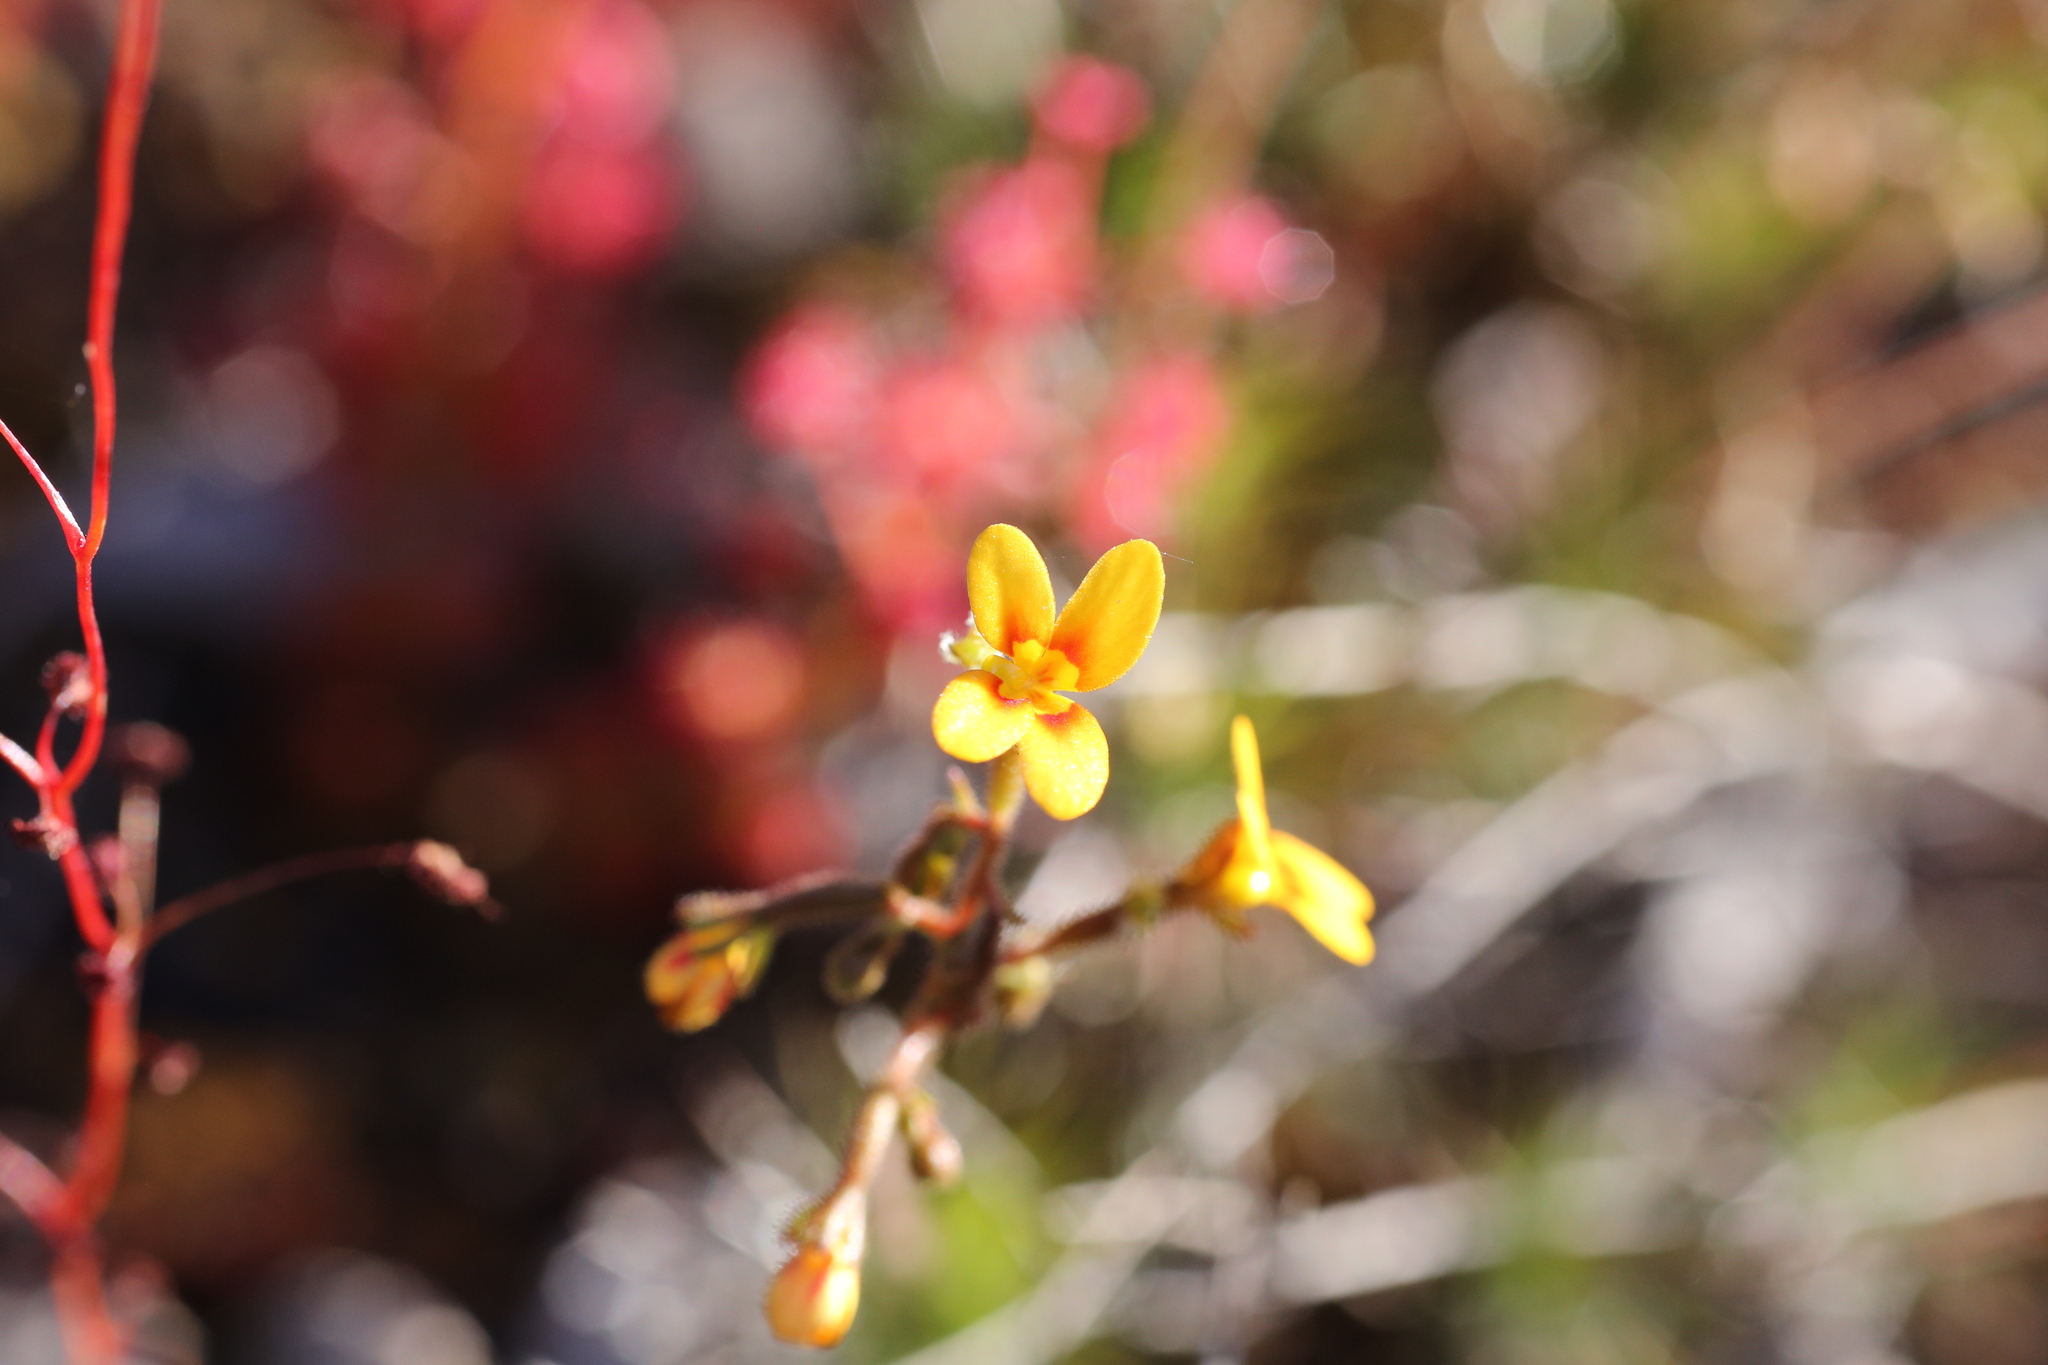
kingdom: Plantae
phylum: Tracheophyta
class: Magnoliopsida
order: Asterales
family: Stylidiaceae
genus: Stylidium
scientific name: Stylidium dichotomum
